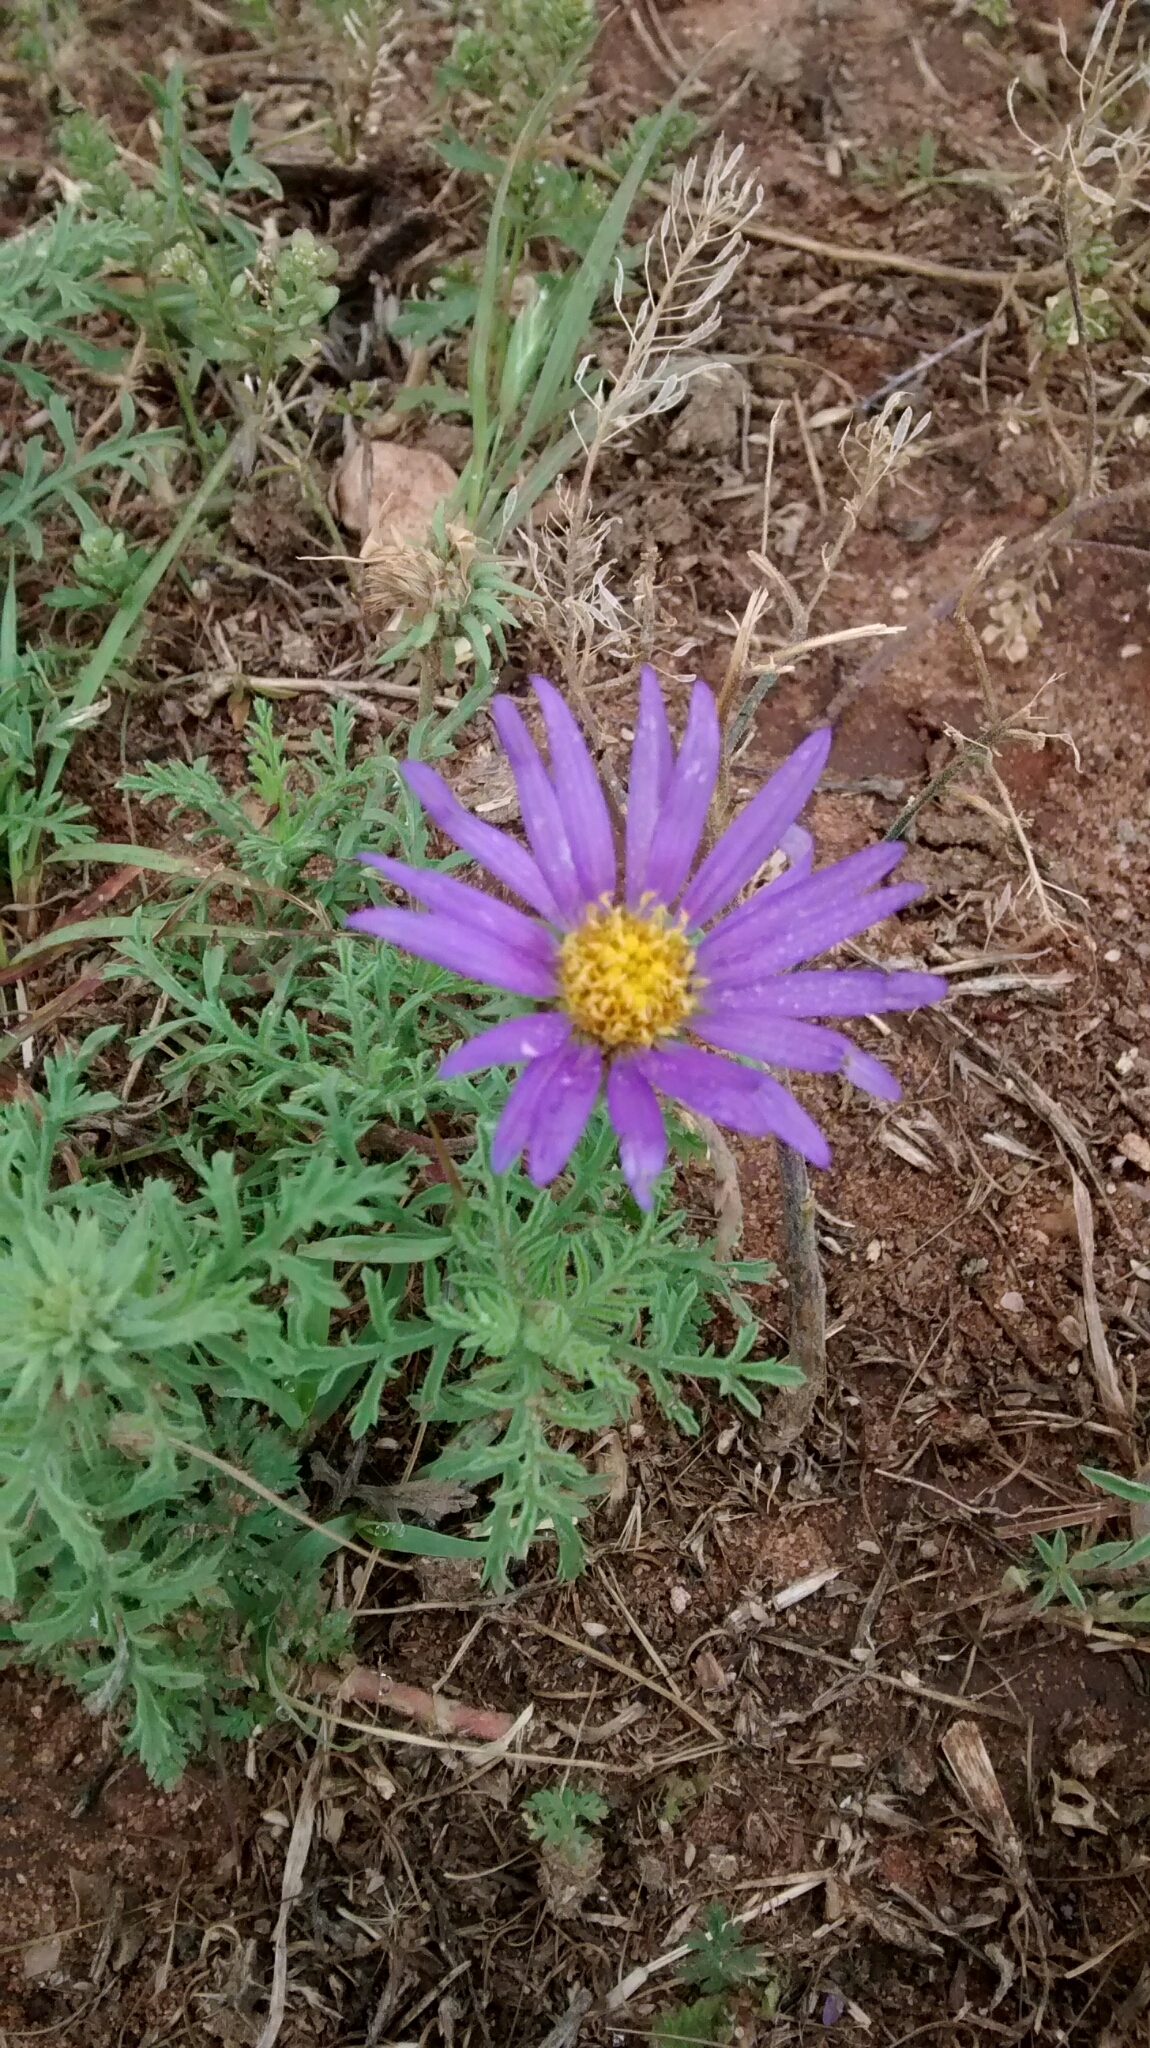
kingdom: Plantae
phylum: Tracheophyta
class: Magnoliopsida
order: Asterales
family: Asteraceae
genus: Machaeranthera
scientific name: Machaeranthera tanacetifolia
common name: Tansy-aster
